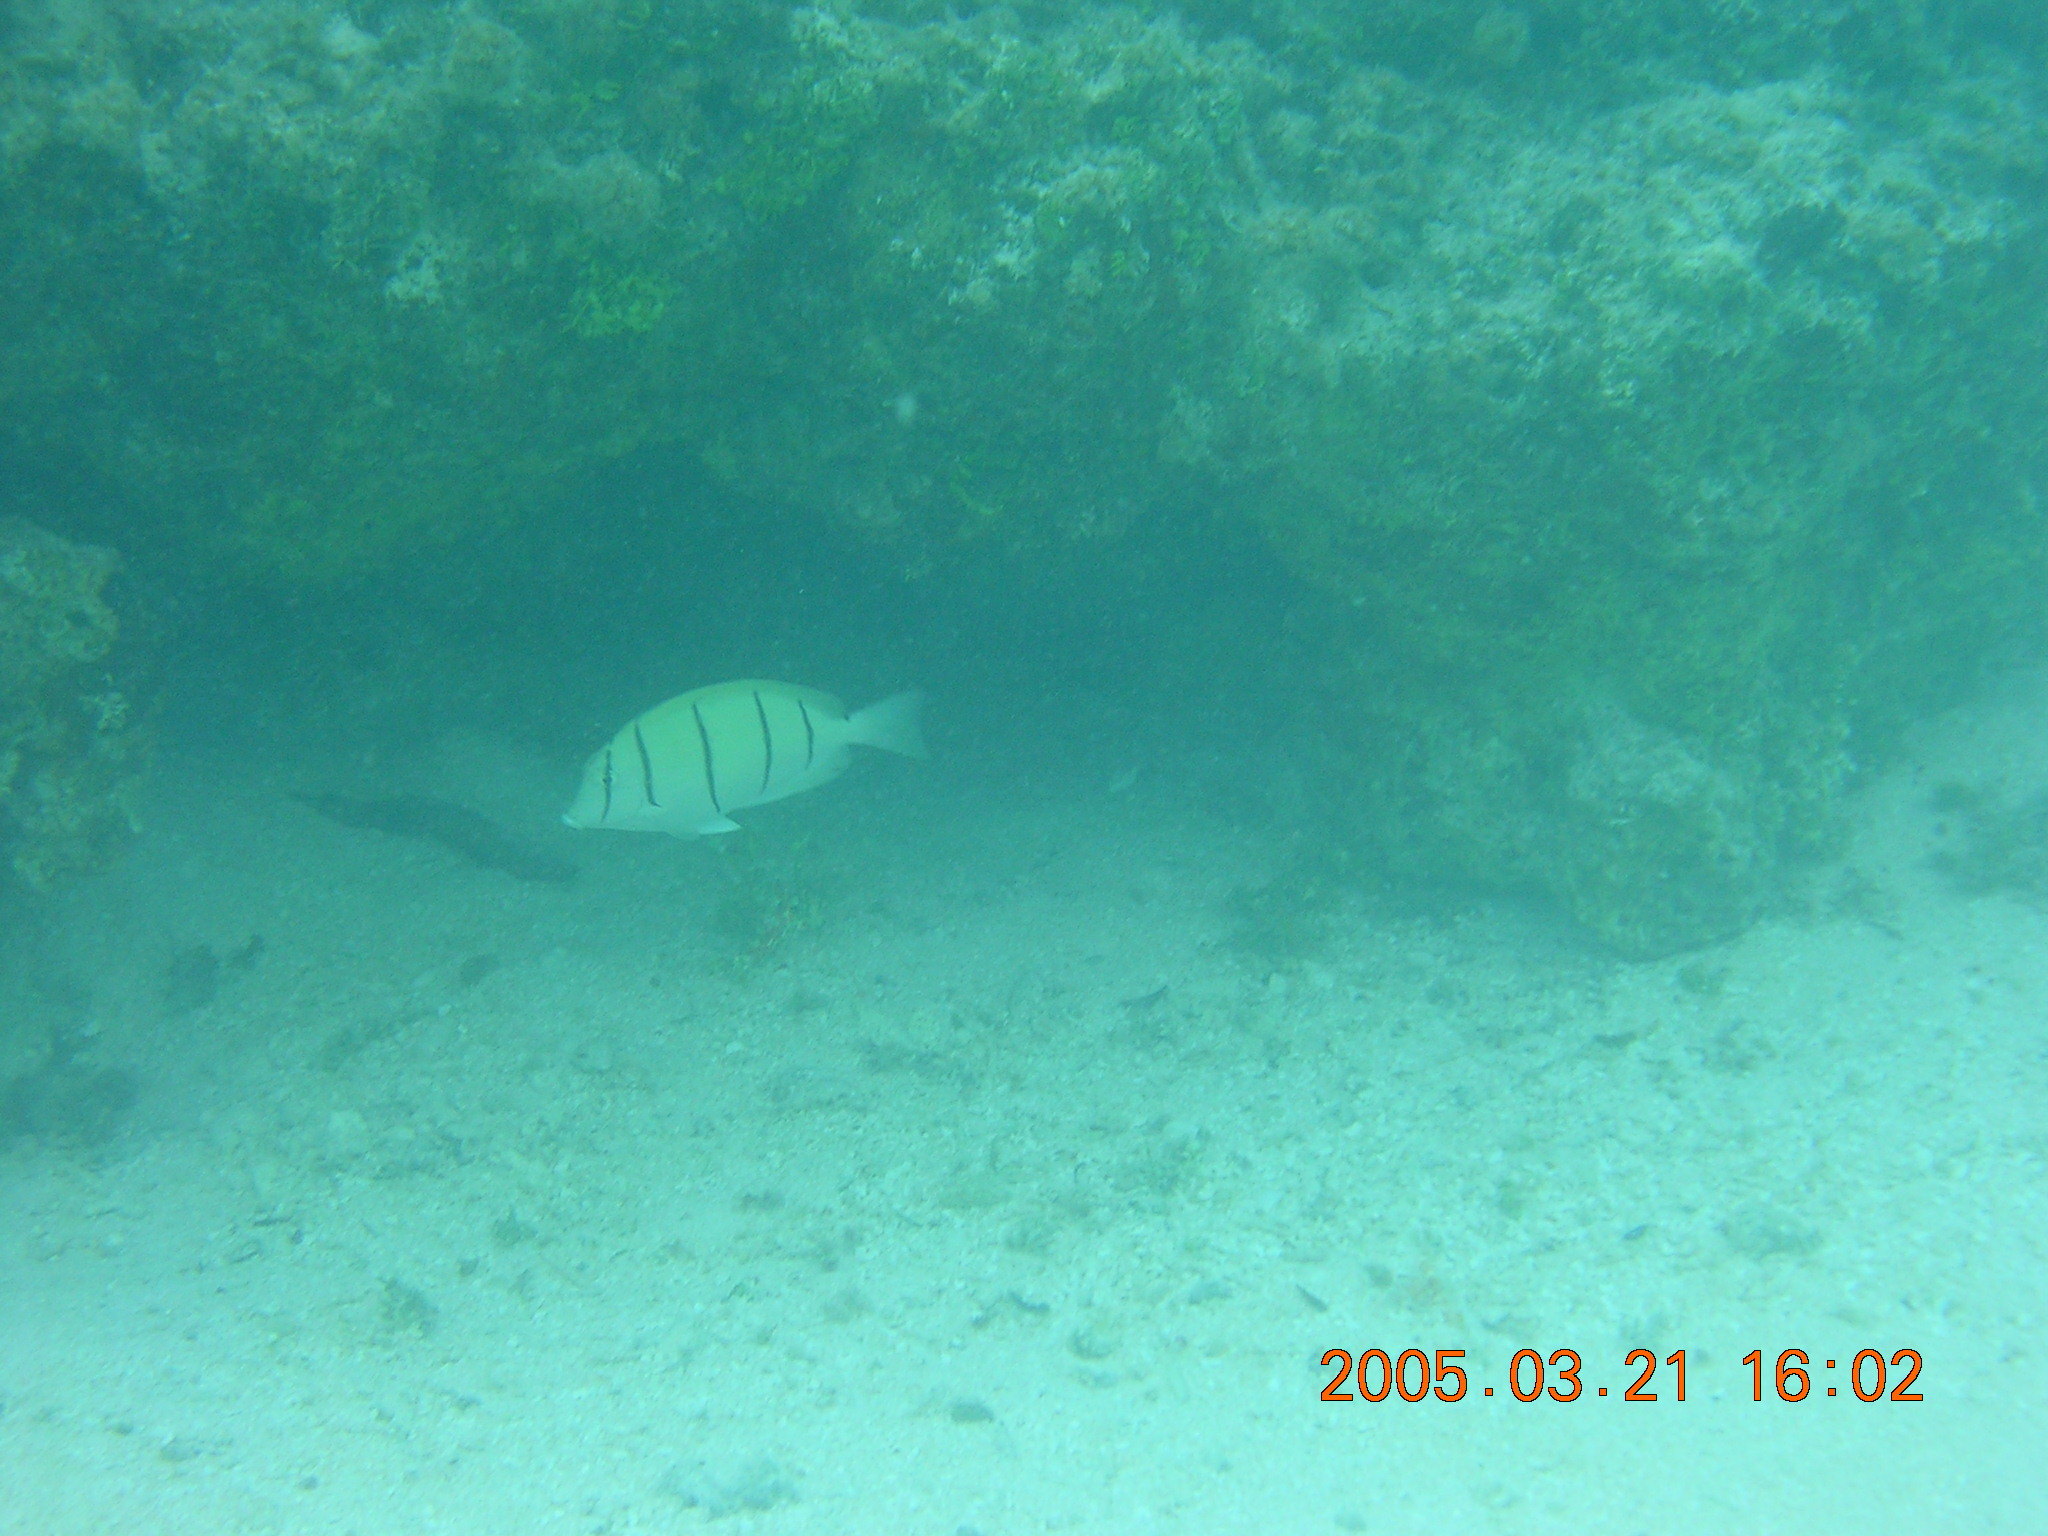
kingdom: Animalia
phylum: Chordata
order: Perciformes
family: Acanthuridae
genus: Acanthurus
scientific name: Acanthurus triostegus
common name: Convict surgeonfish
